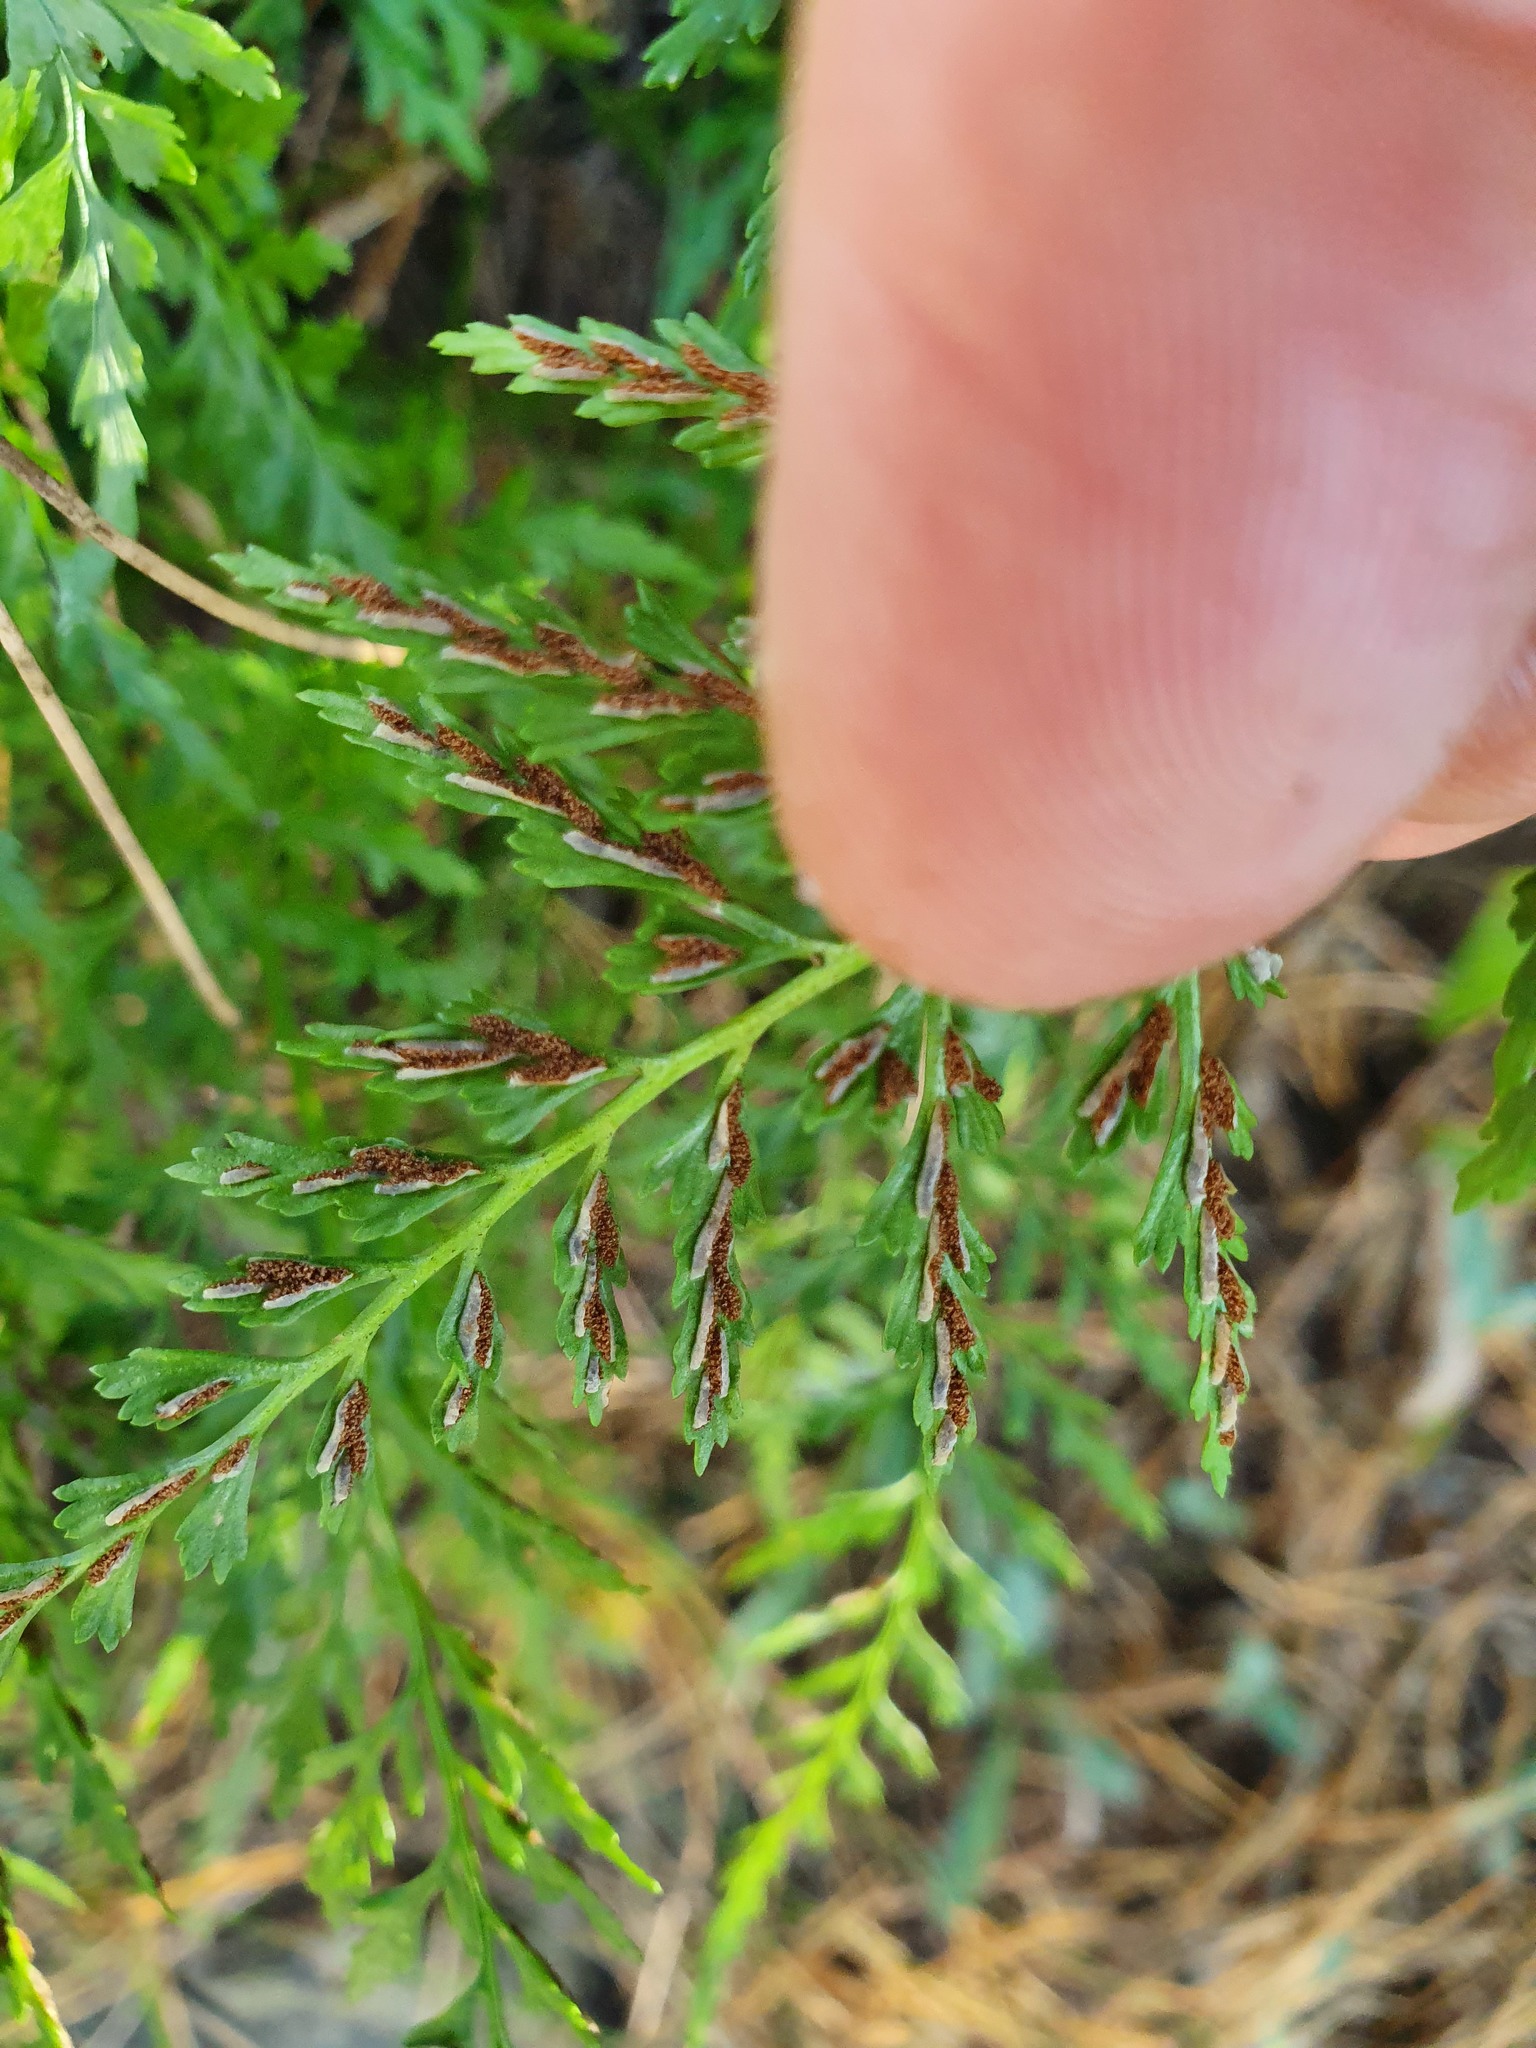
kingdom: Plantae
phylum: Tracheophyta
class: Polypodiopsida
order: Polypodiales
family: Aspleniaceae
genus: Asplenium
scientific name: Asplenium cuneifolium
